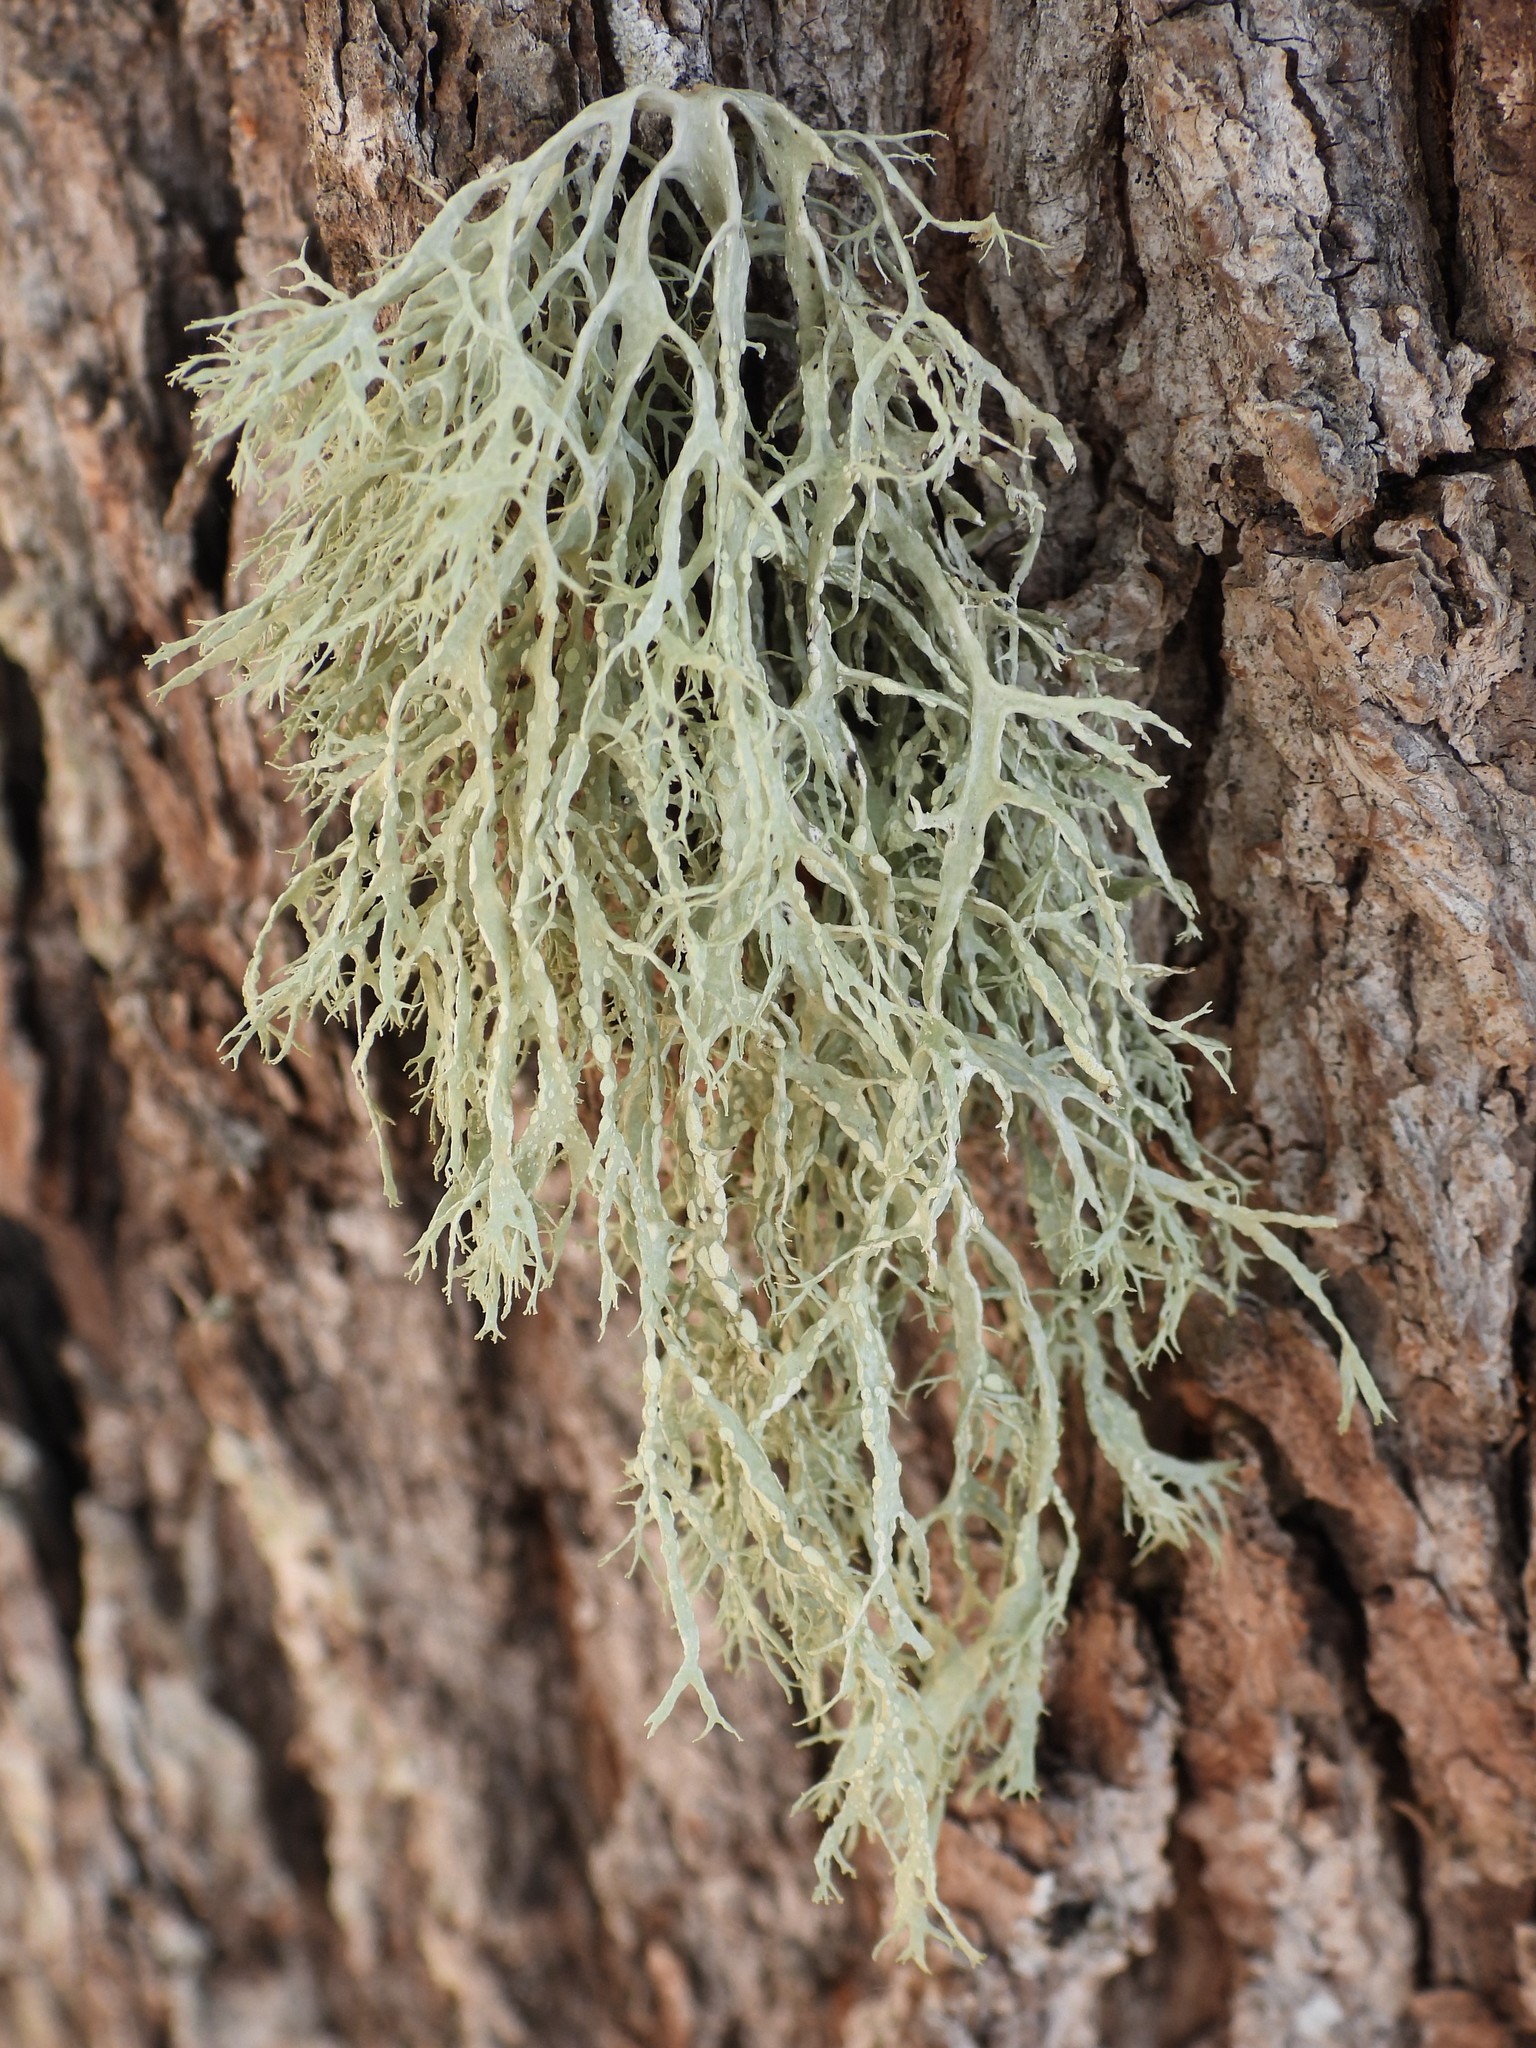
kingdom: Fungi
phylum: Ascomycota
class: Lecanoromycetes
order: Lecanorales
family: Ramalinaceae
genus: Ramalina
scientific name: Ramalina farinacea
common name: Farinose cartilage lichen
